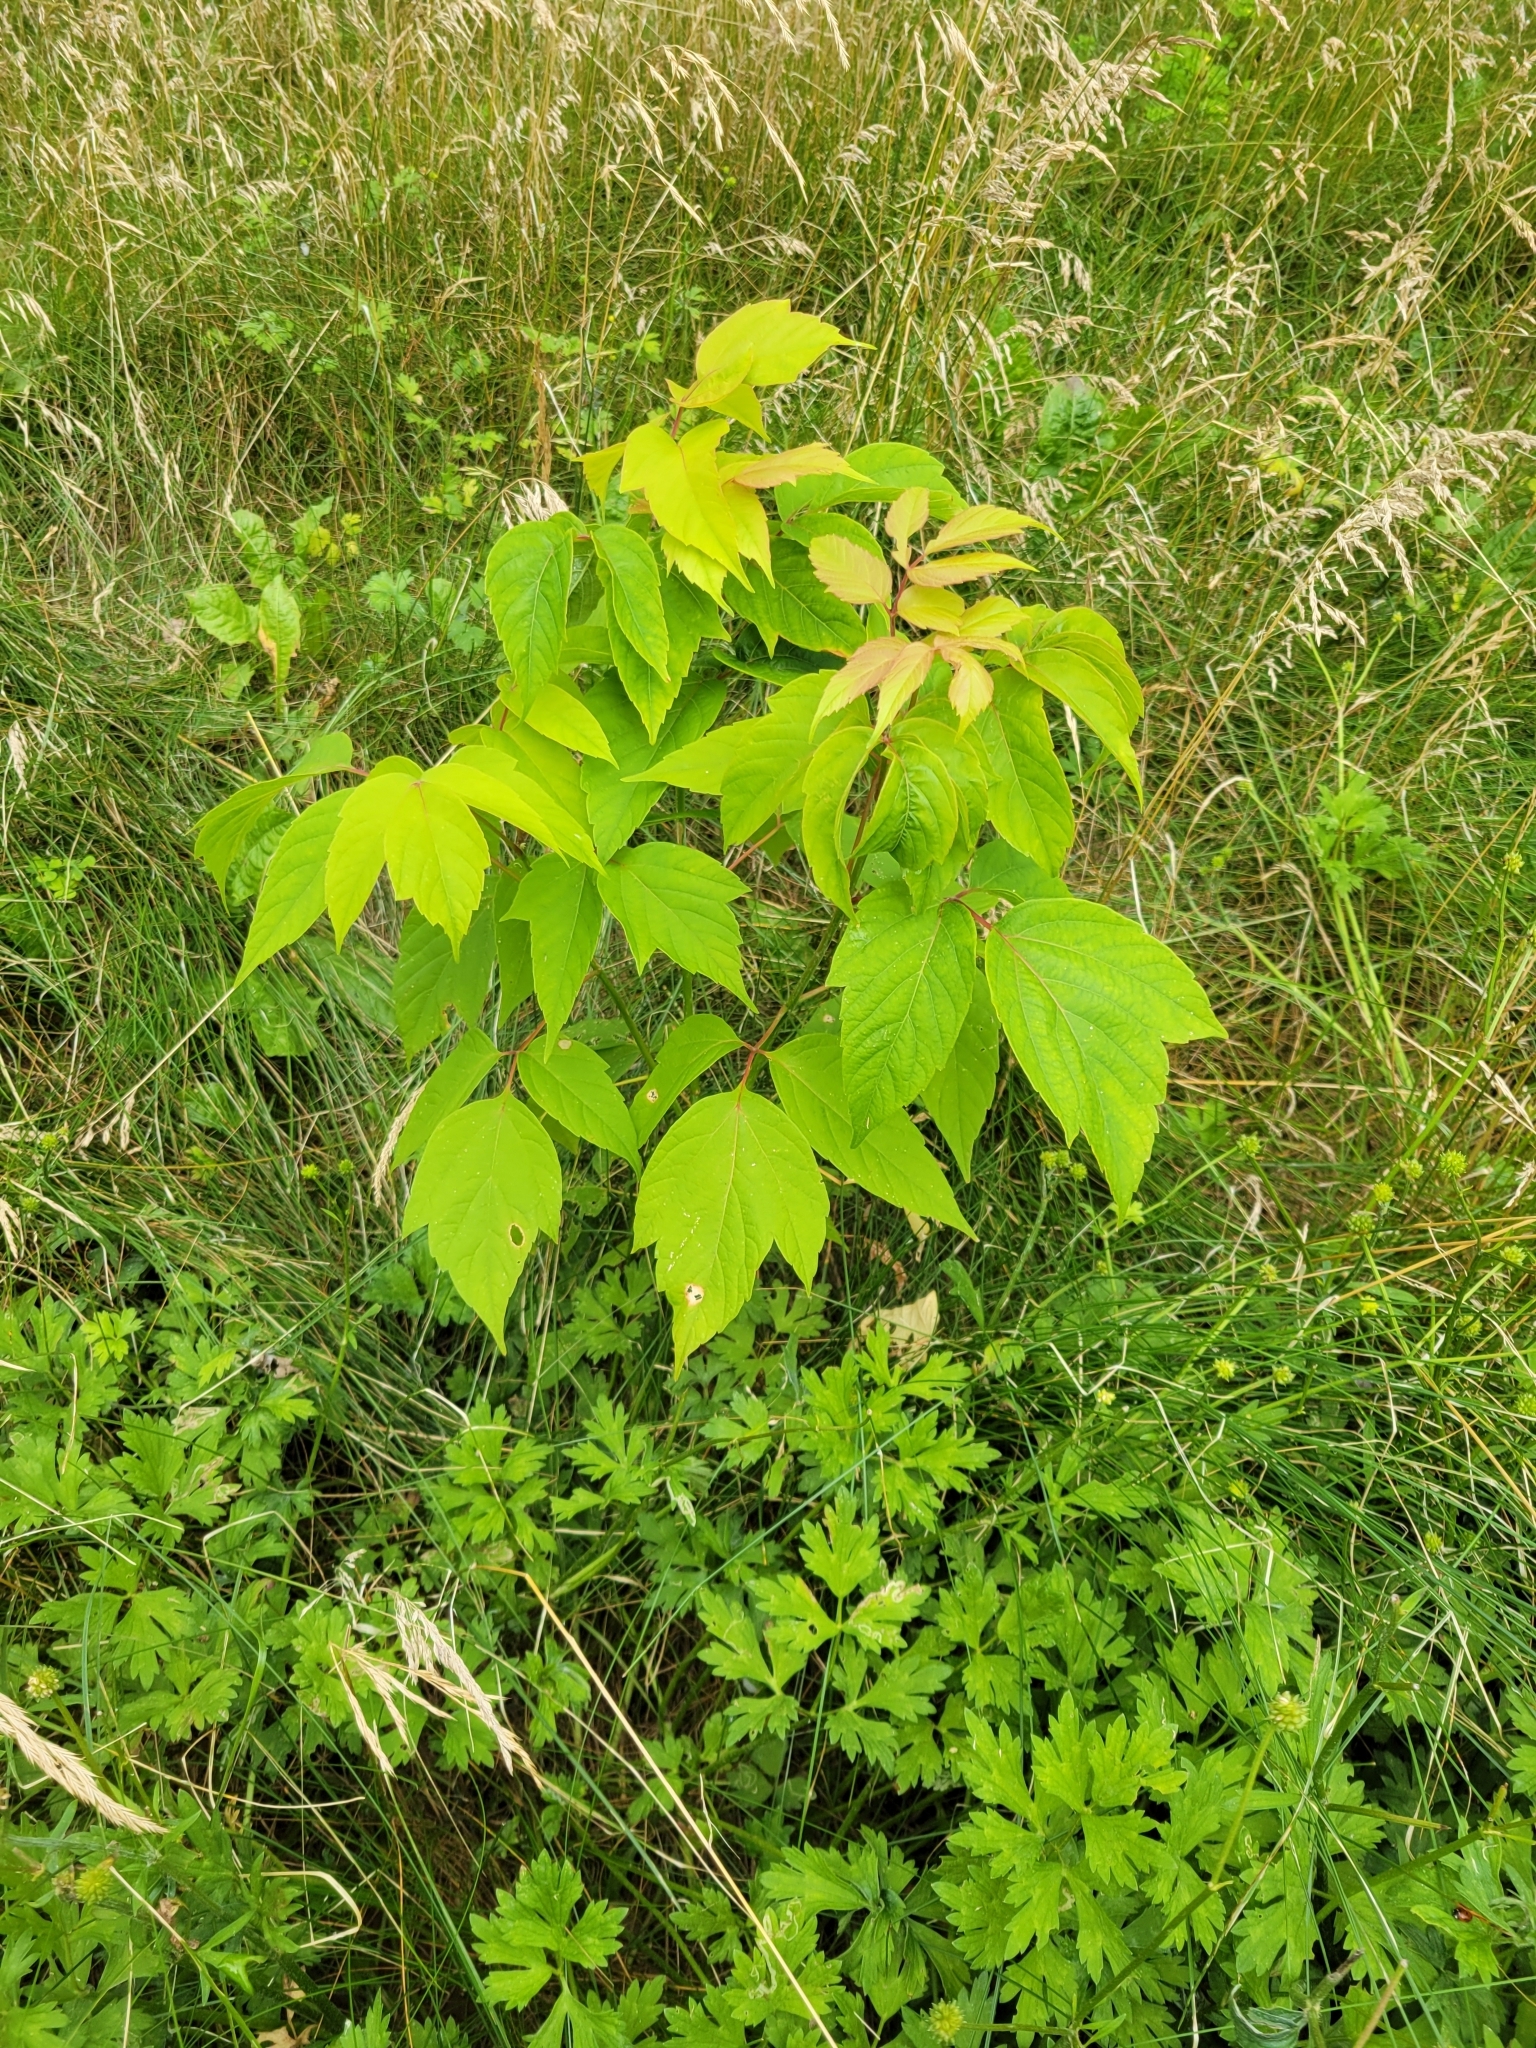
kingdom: Plantae
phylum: Tracheophyta
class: Magnoliopsida
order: Sapindales
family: Sapindaceae
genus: Acer
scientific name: Acer negundo
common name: Ashleaf maple
